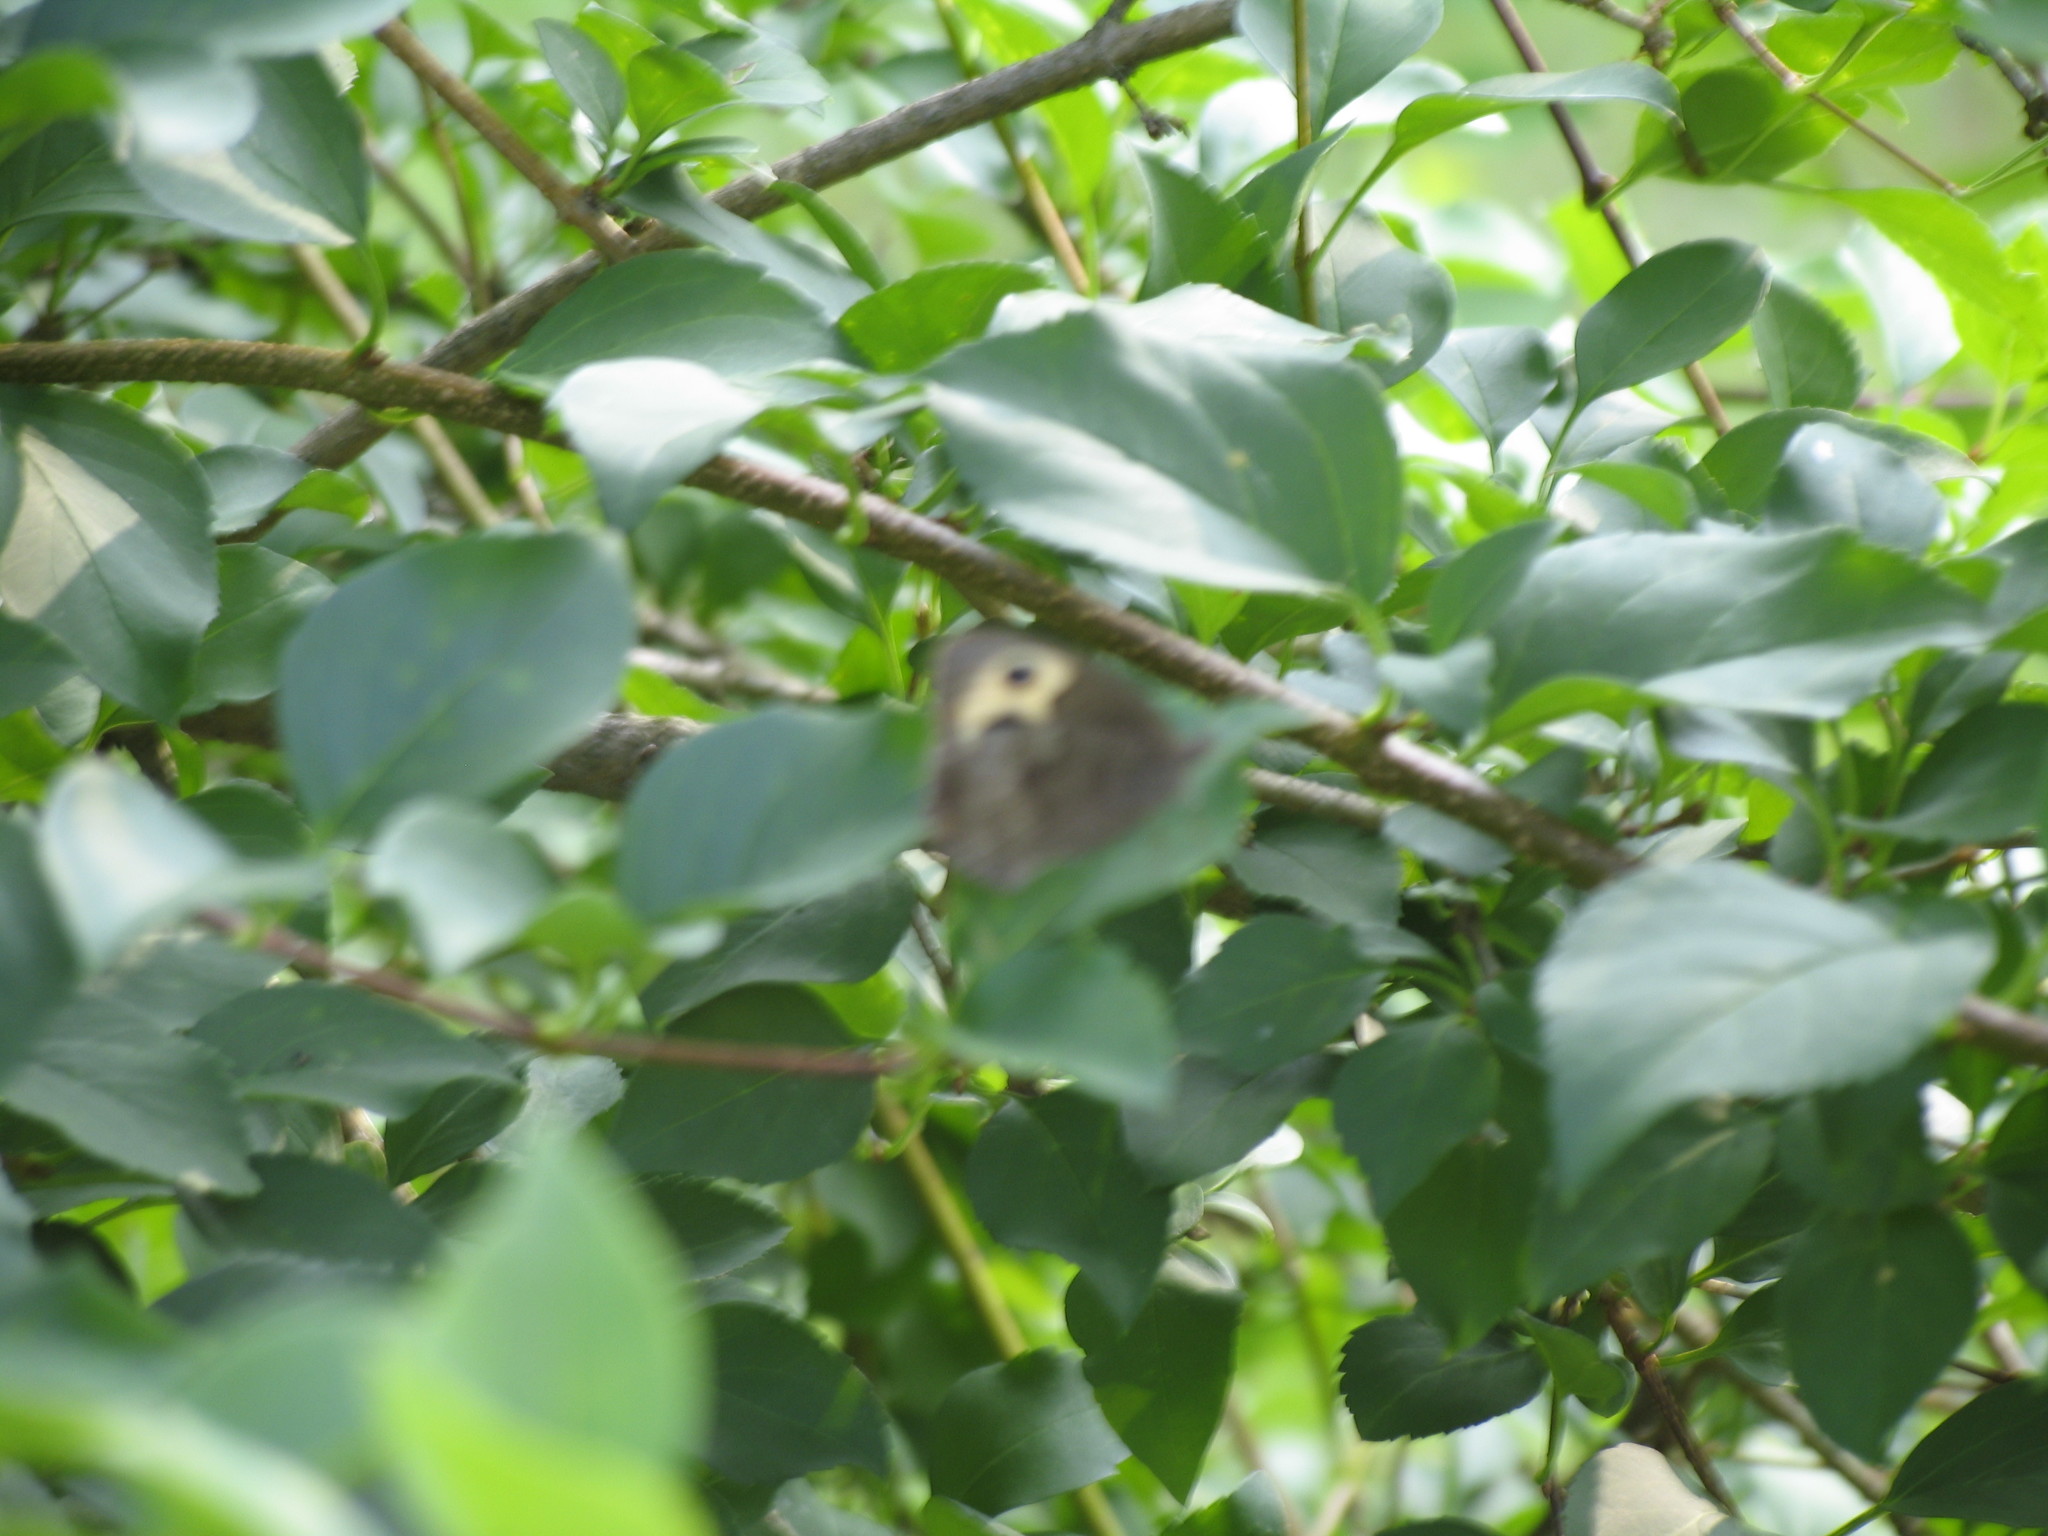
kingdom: Animalia
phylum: Arthropoda
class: Insecta
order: Lepidoptera
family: Nymphalidae
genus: Cercyonis
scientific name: Cercyonis pegala
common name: Common wood-nymph
